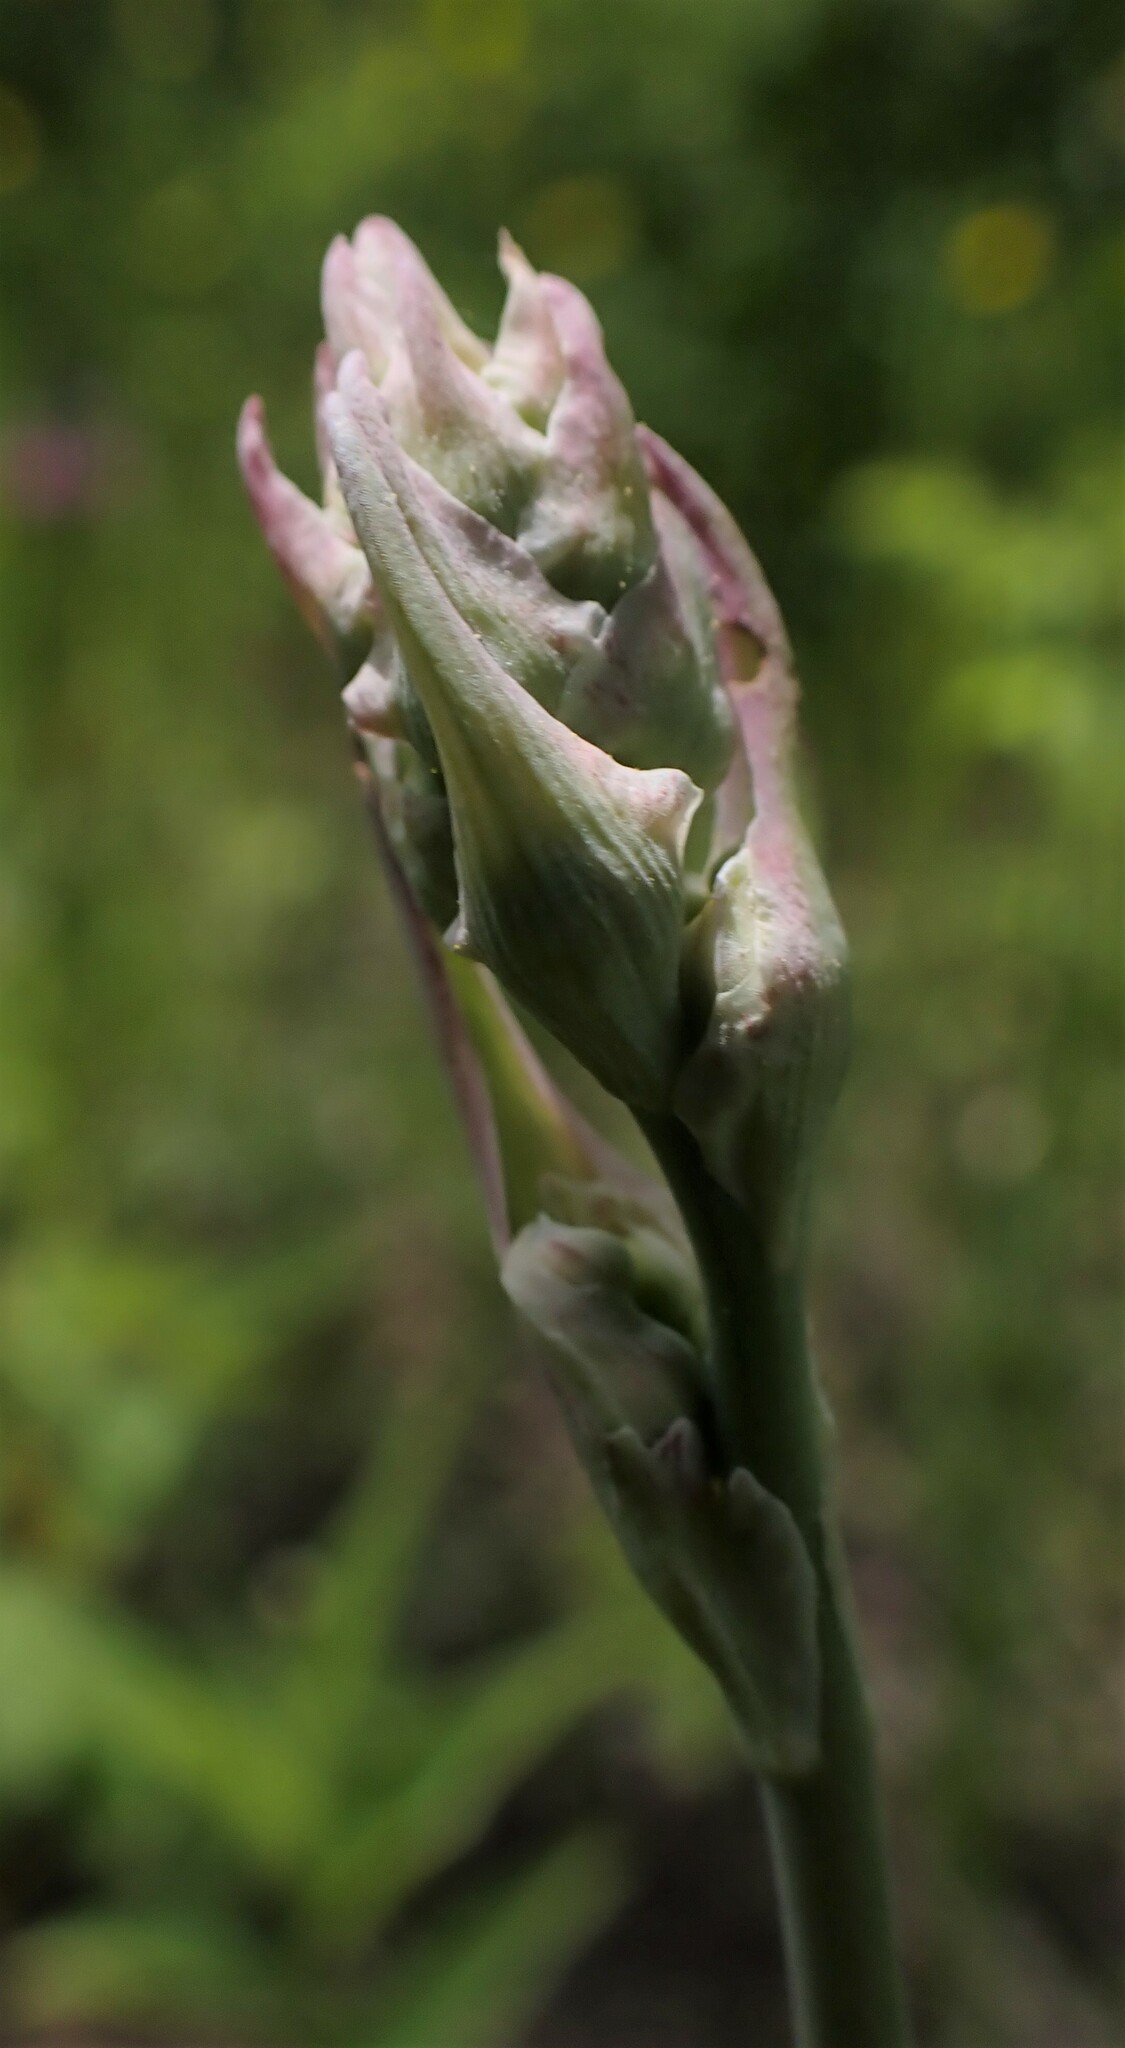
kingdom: Plantae
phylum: Tracheophyta
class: Liliopsida
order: Liliales
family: Melanthiaceae
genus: Anticlea
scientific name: Anticlea elegans
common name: Mountain death camas
